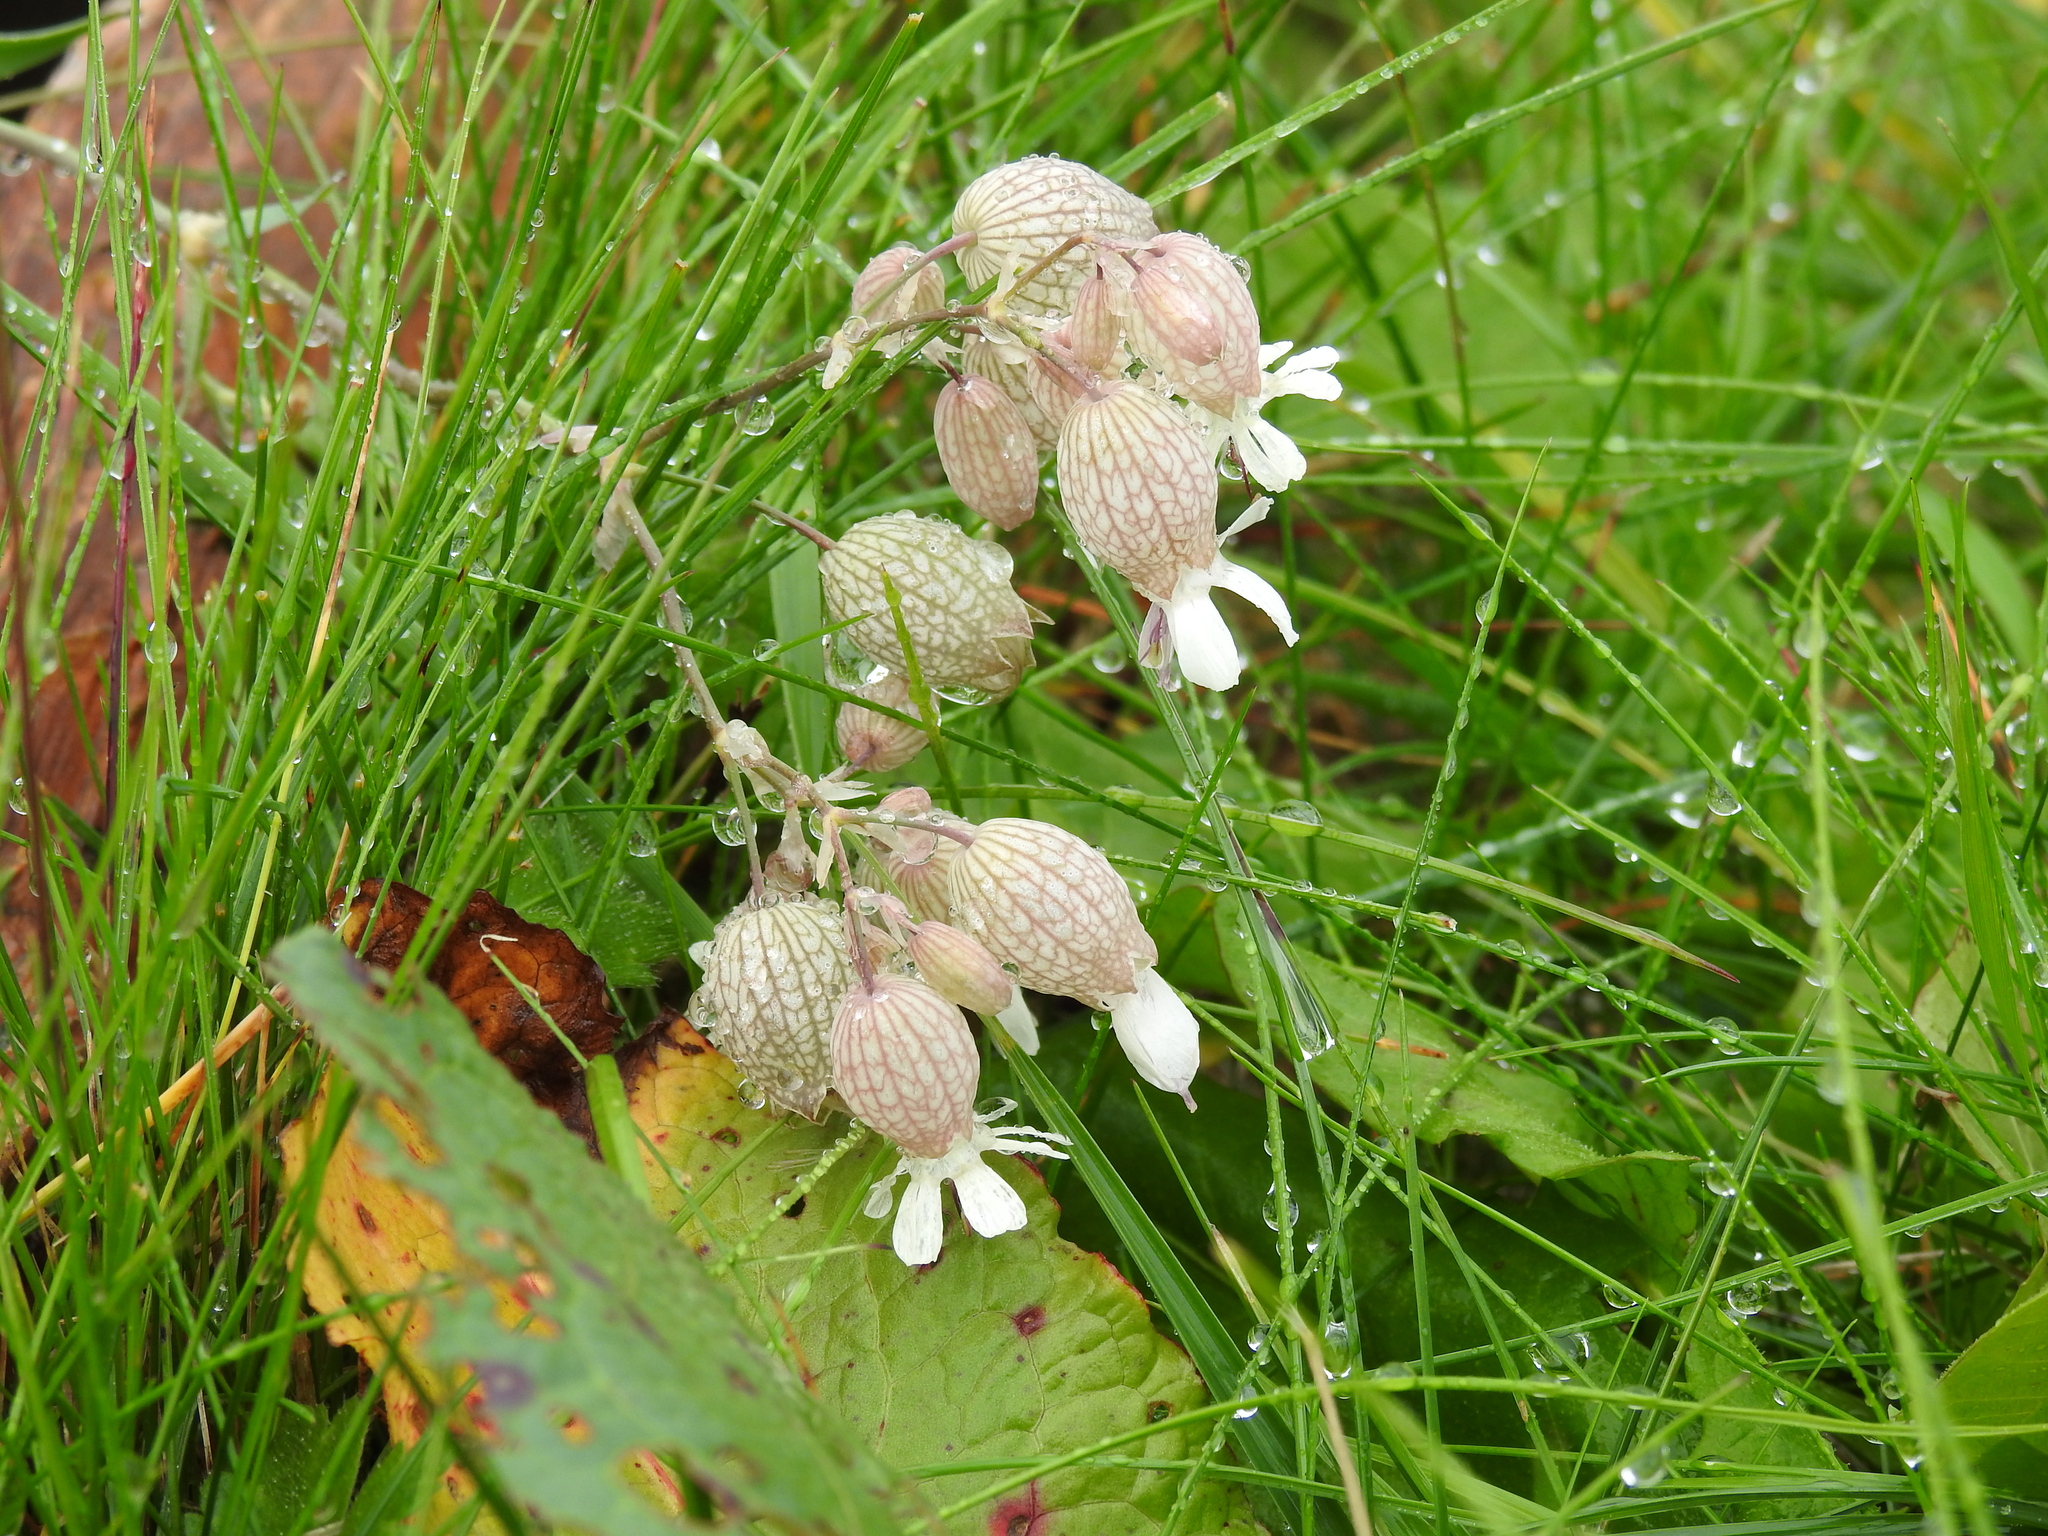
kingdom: Plantae
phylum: Tracheophyta
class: Magnoliopsida
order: Caryophyllales
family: Caryophyllaceae
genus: Silene
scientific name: Silene vulgaris
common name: Bladder campion
